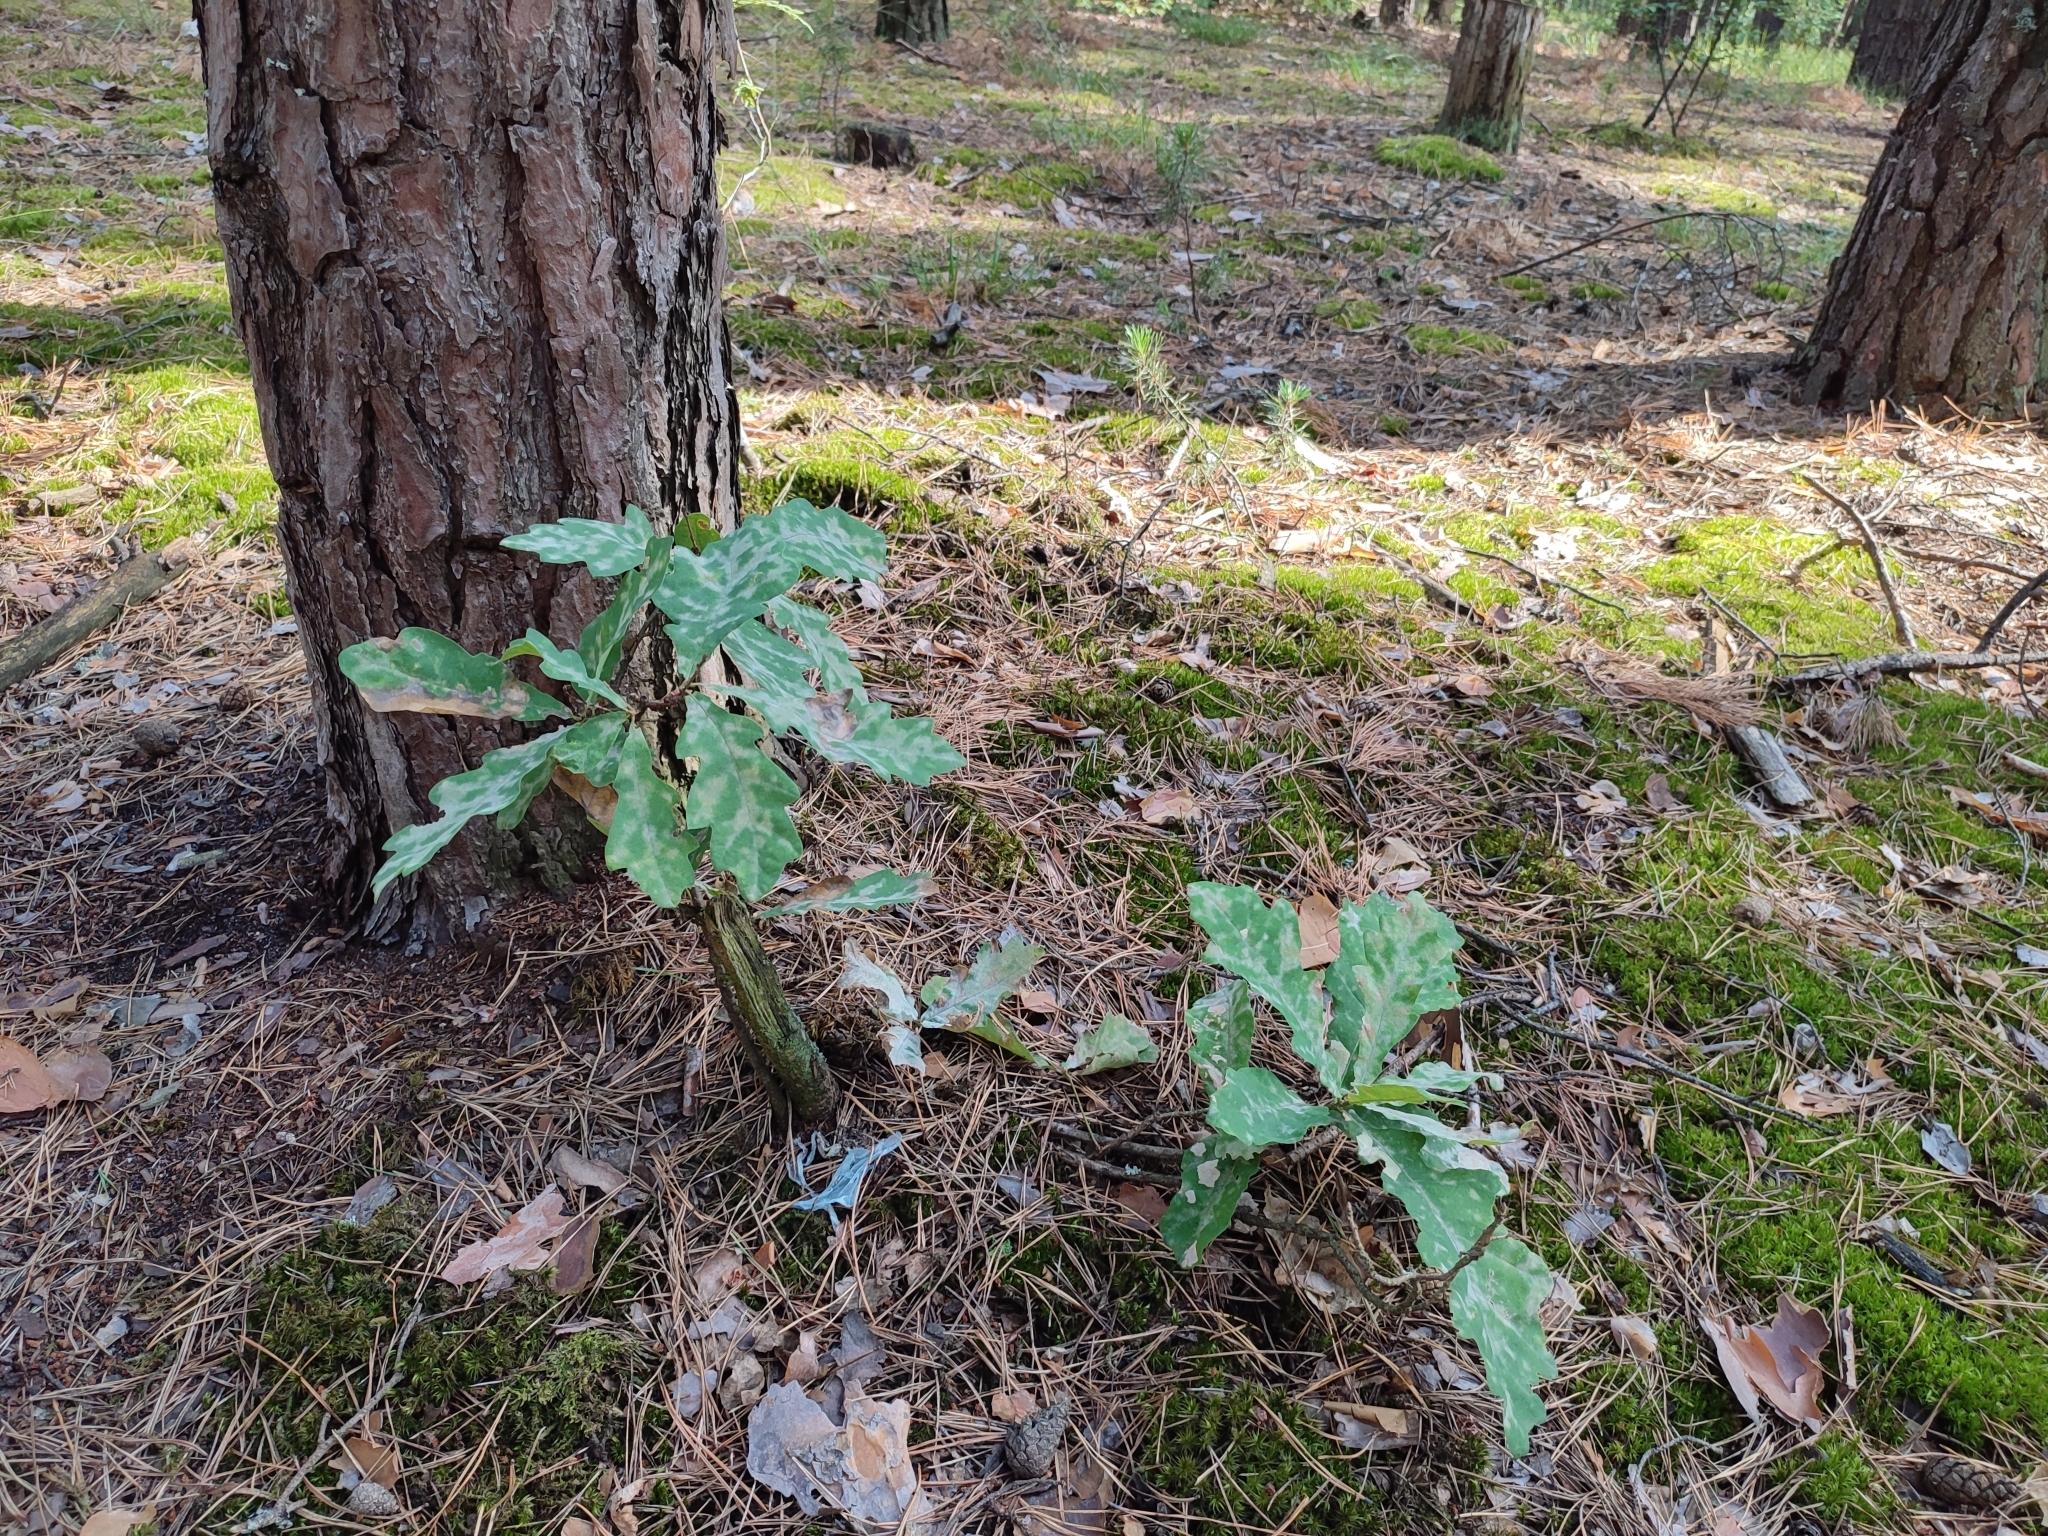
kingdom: Plantae
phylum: Tracheophyta
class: Magnoliopsida
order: Fagales
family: Fagaceae
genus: Quercus
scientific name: Quercus robur
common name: Pedunculate oak
